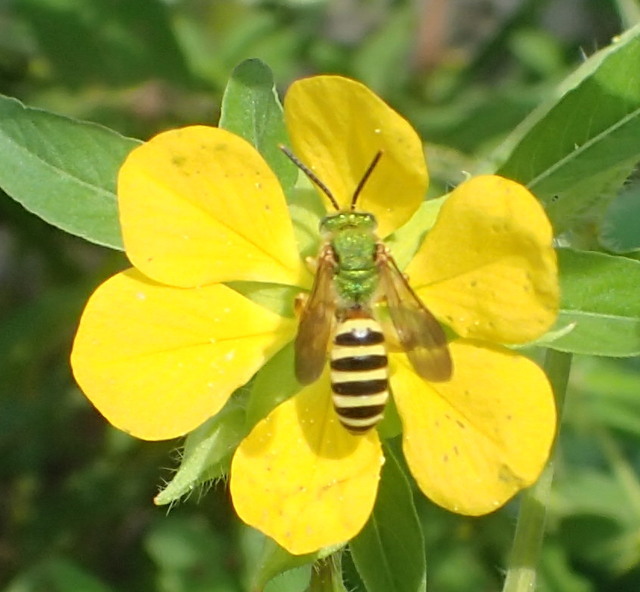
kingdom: Animalia
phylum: Arthropoda
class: Insecta
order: Hymenoptera
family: Halictidae
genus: Agapostemon
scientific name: Agapostemon splendens
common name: Brown-winged striped sweat bee
